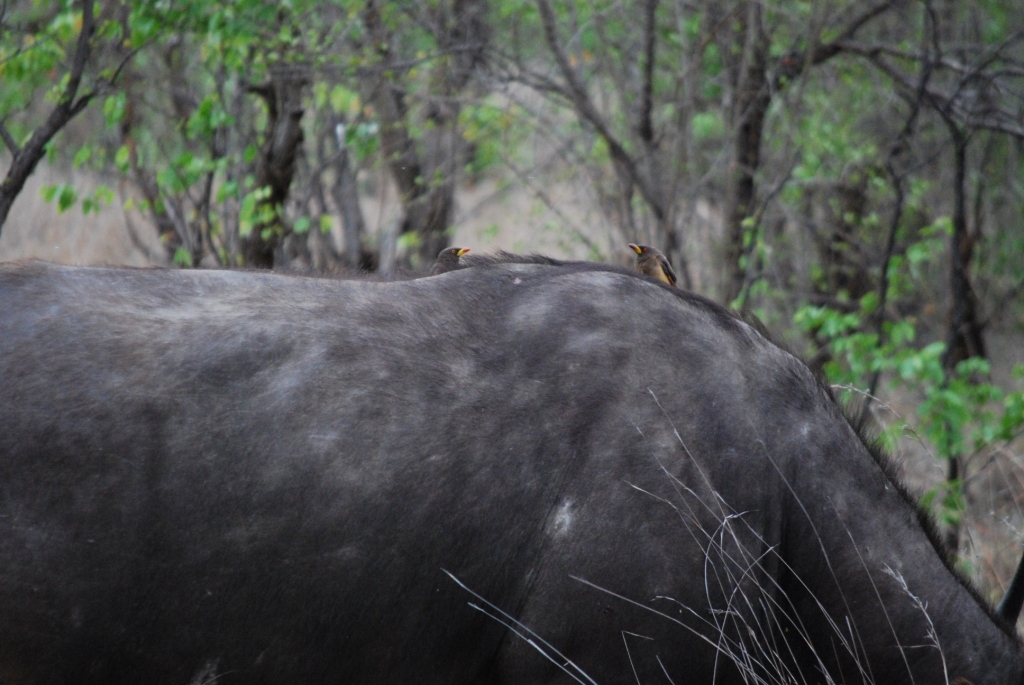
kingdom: Animalia
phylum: Chordata
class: Aves
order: Passeriformes
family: Buphagidae
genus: Buphagus
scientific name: Buphagus africanus
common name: Yellow-billed oxpecker
